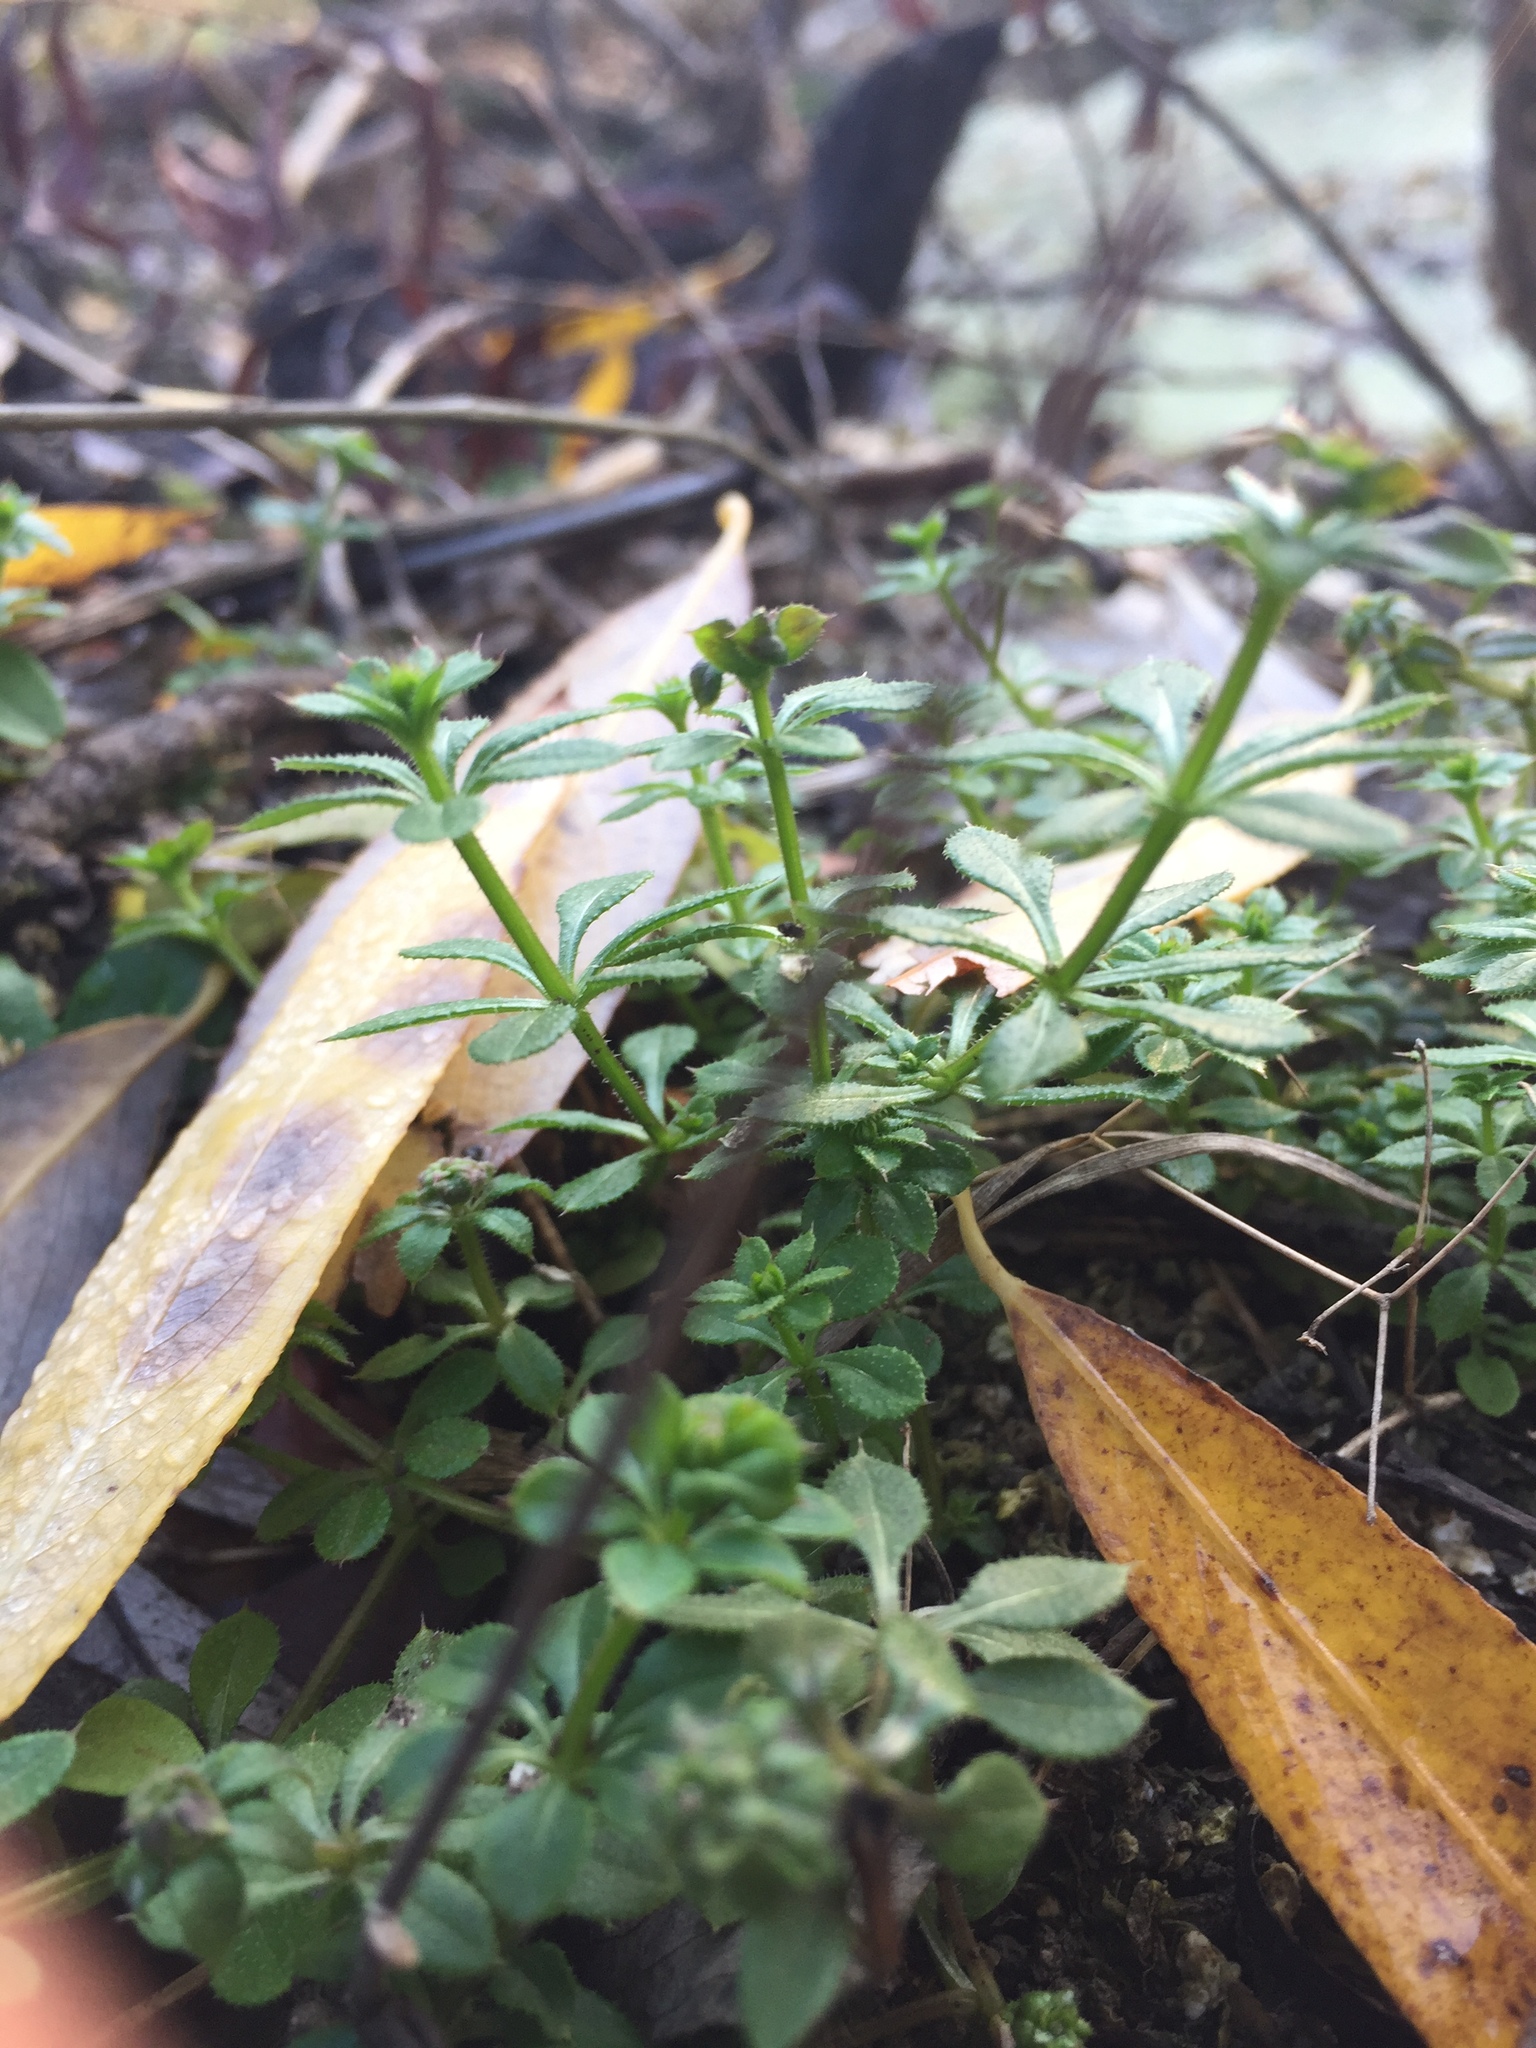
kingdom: Plantae
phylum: Tracheophyta
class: Magnoliopsida
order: Gentianales
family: Rubiaceae
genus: Galium
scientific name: Galium aparine
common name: Cleavers
